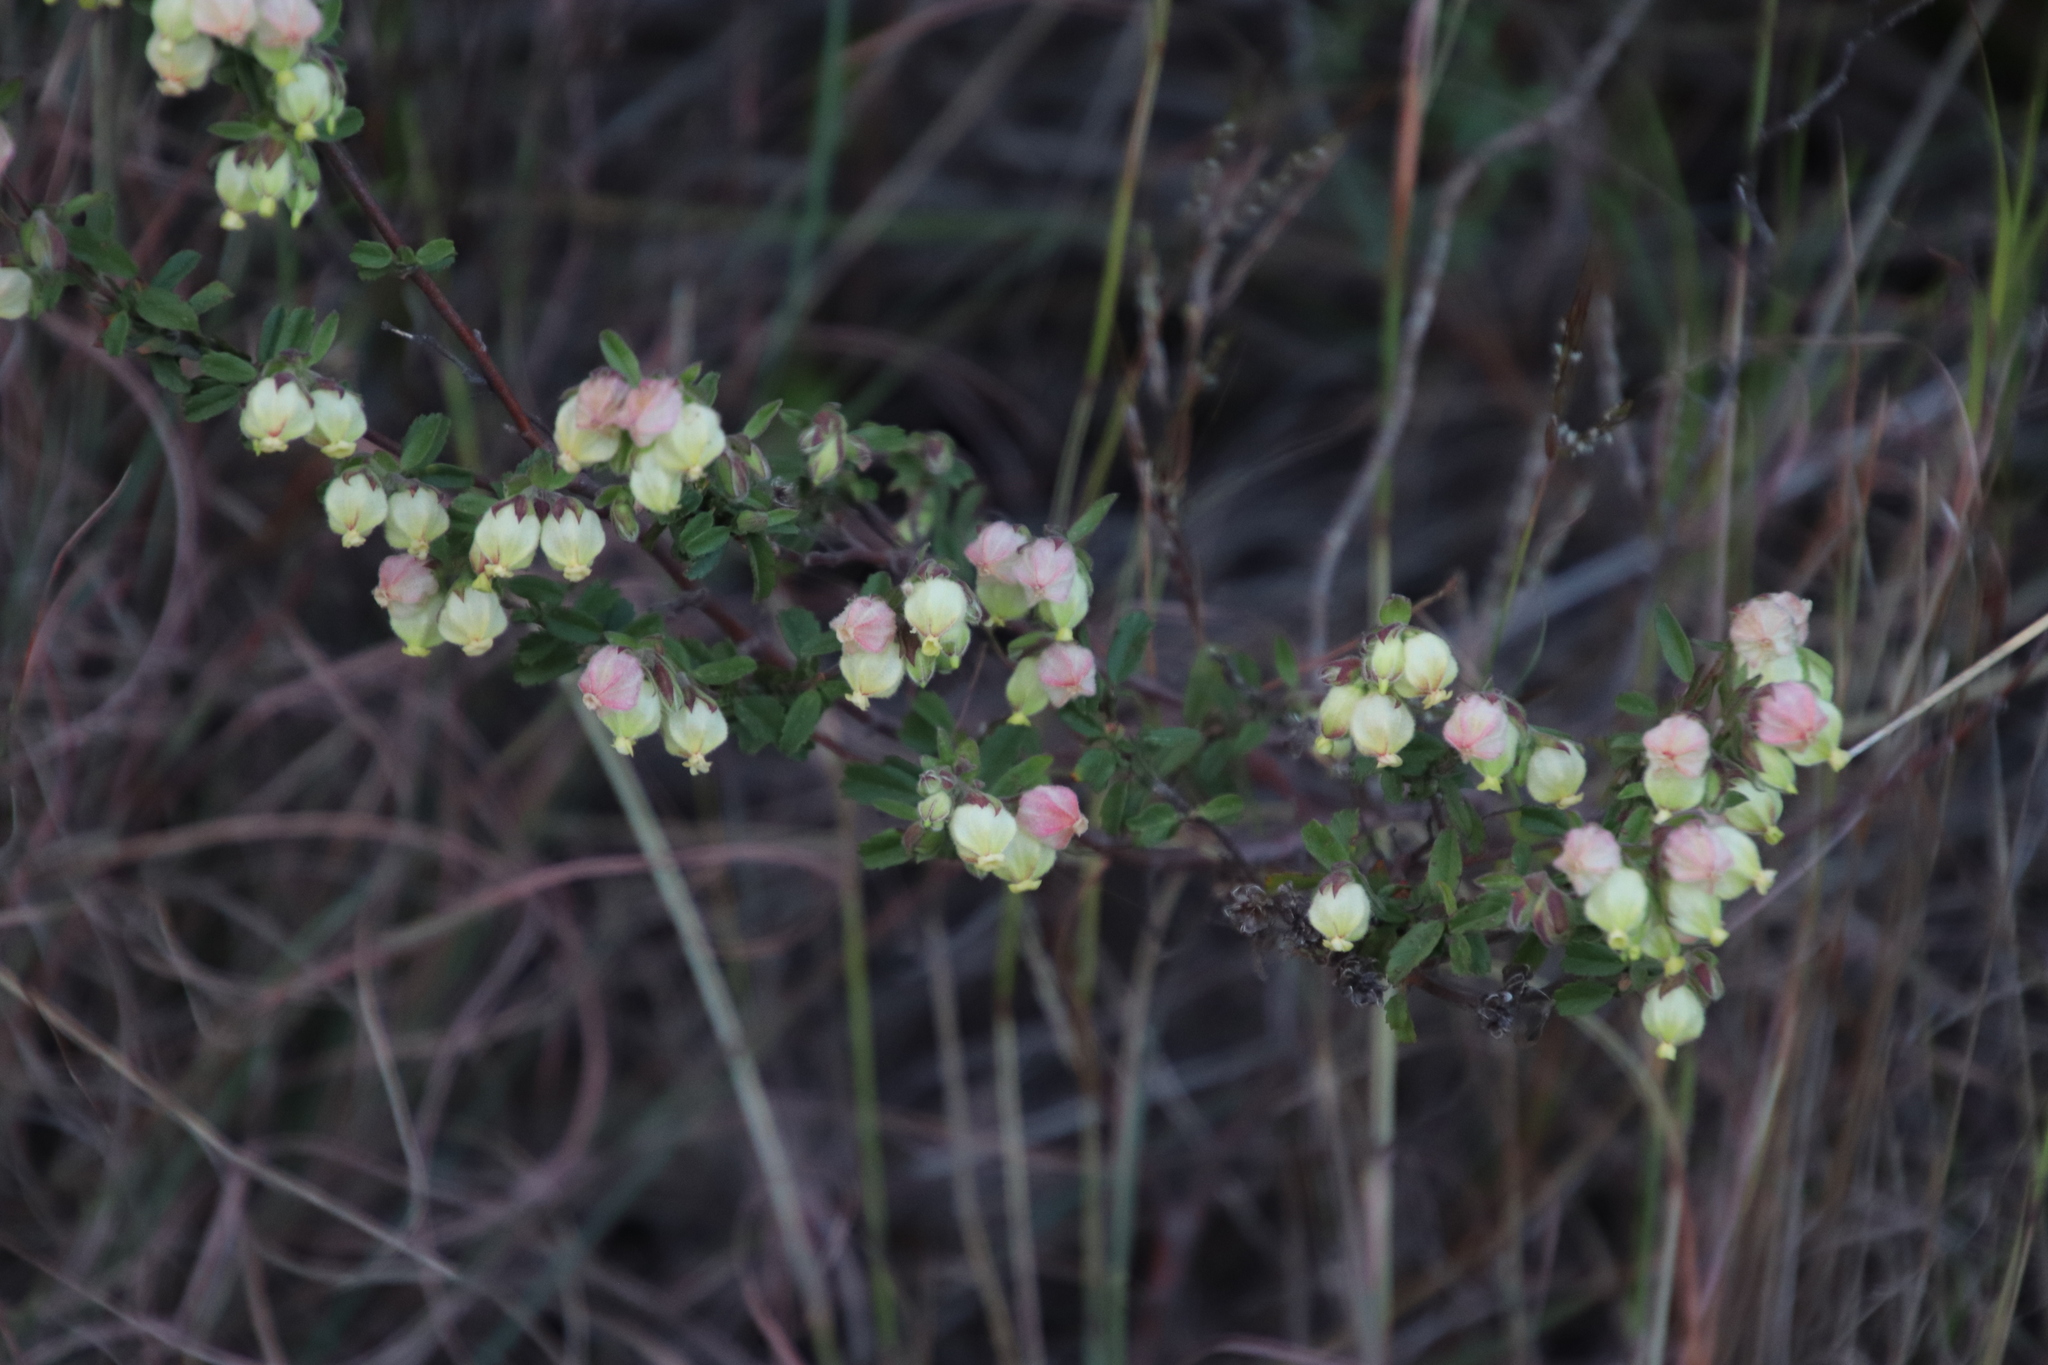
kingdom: Plantae
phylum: Tracheophyta
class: Magnoliopsida
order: Malvales
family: Malvaceae
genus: Hermannia
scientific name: Hermannia hyssopifolia
